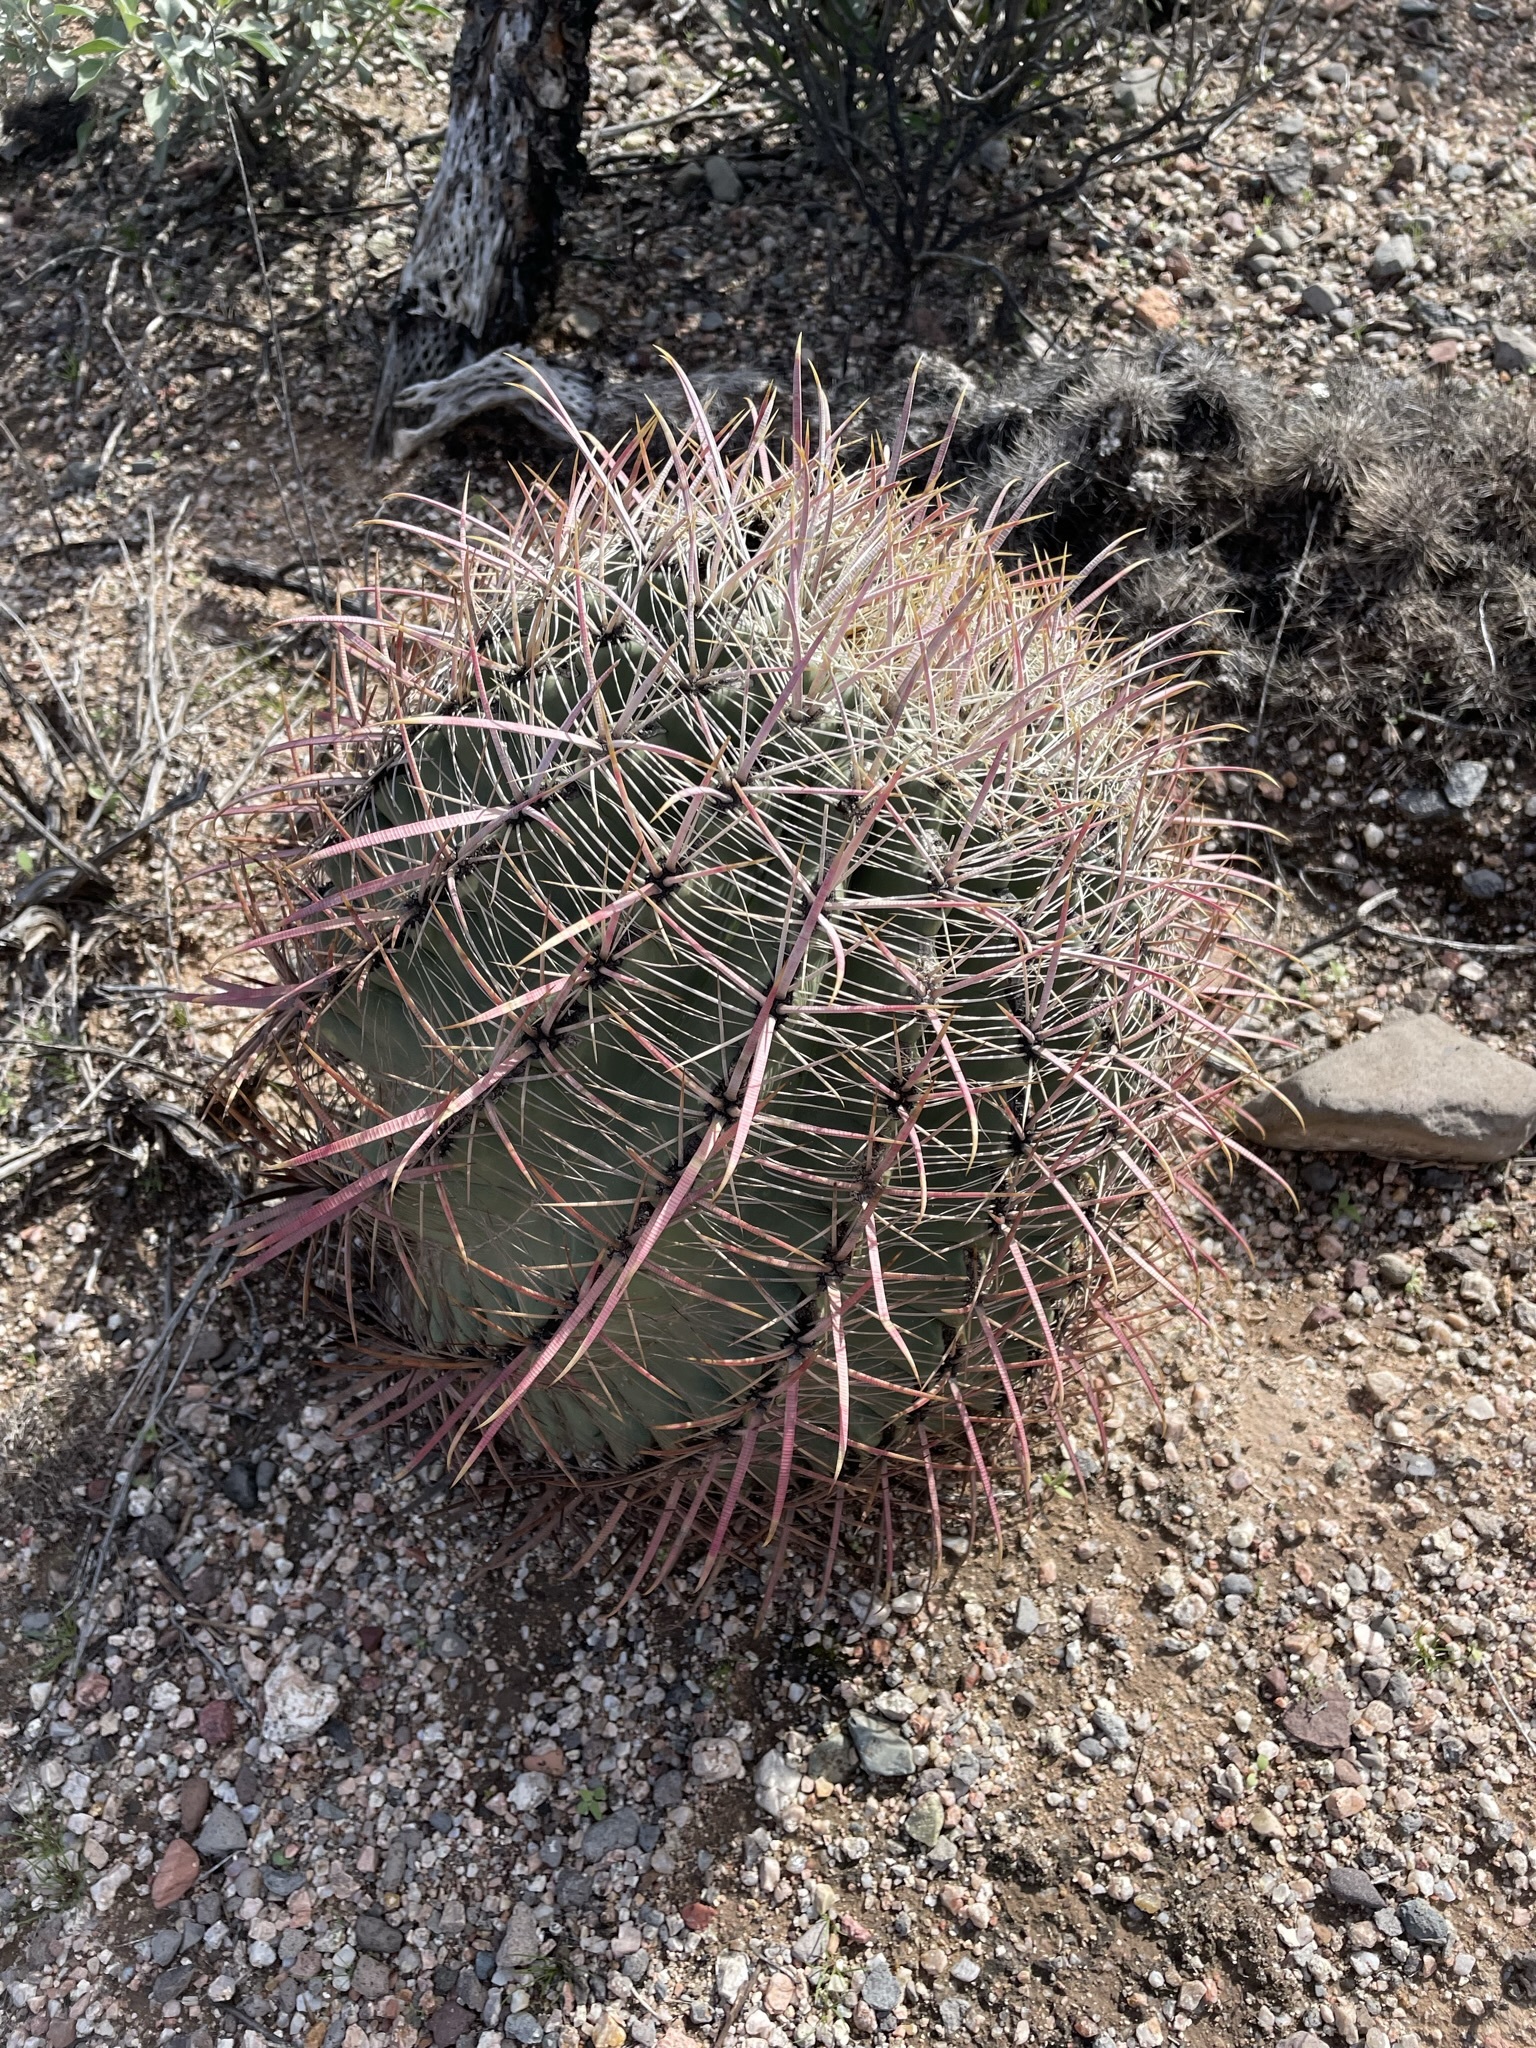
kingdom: Plantae
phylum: Tracheophyta
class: Magnoliopsida
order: Caryophyllales
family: Cactaceae
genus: Ferocactus
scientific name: Ferocactus cylindraceus
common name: California barrel cactus
